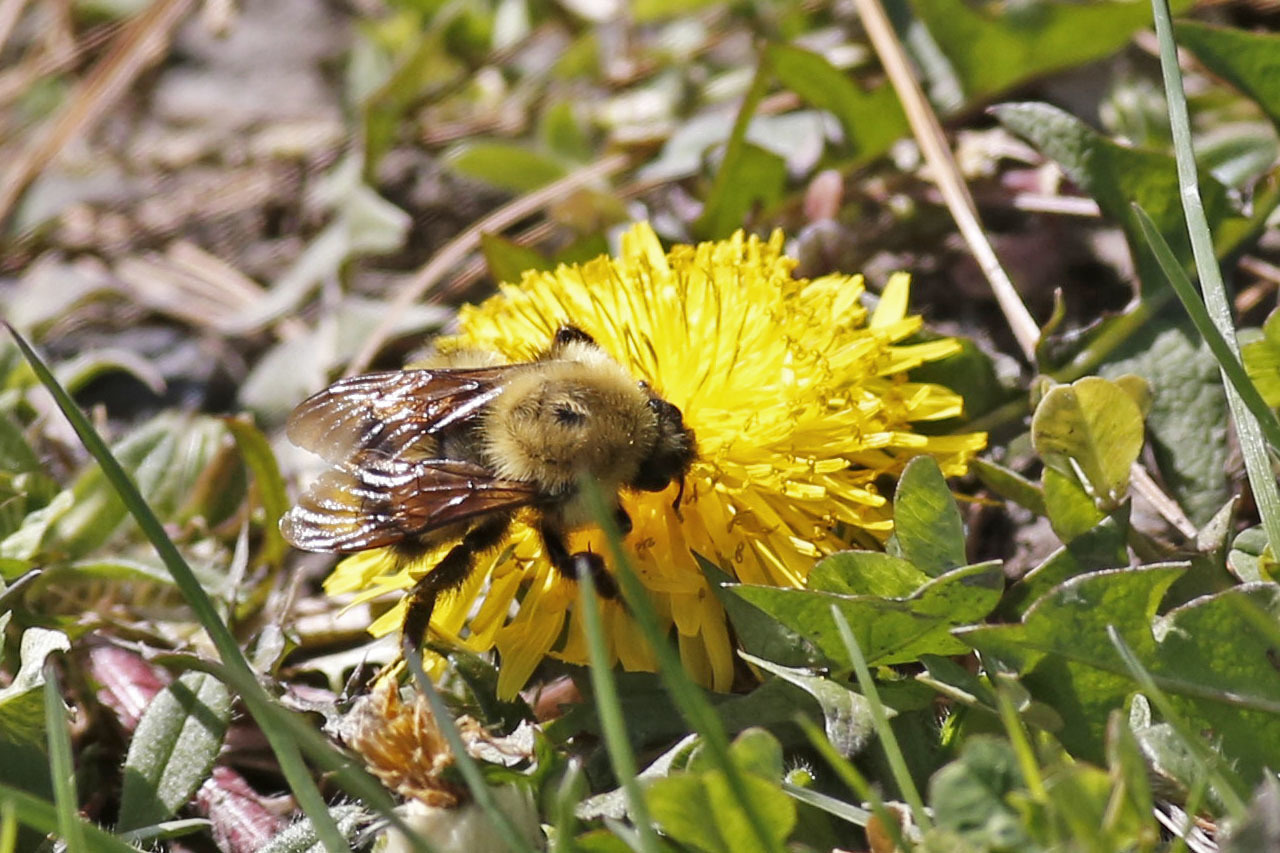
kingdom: Animalia
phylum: Arthropoda
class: Insecta
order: Hymenoptera
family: Apidae
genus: Bombus
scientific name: Bombus perplexus
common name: Confusing bumble bee
